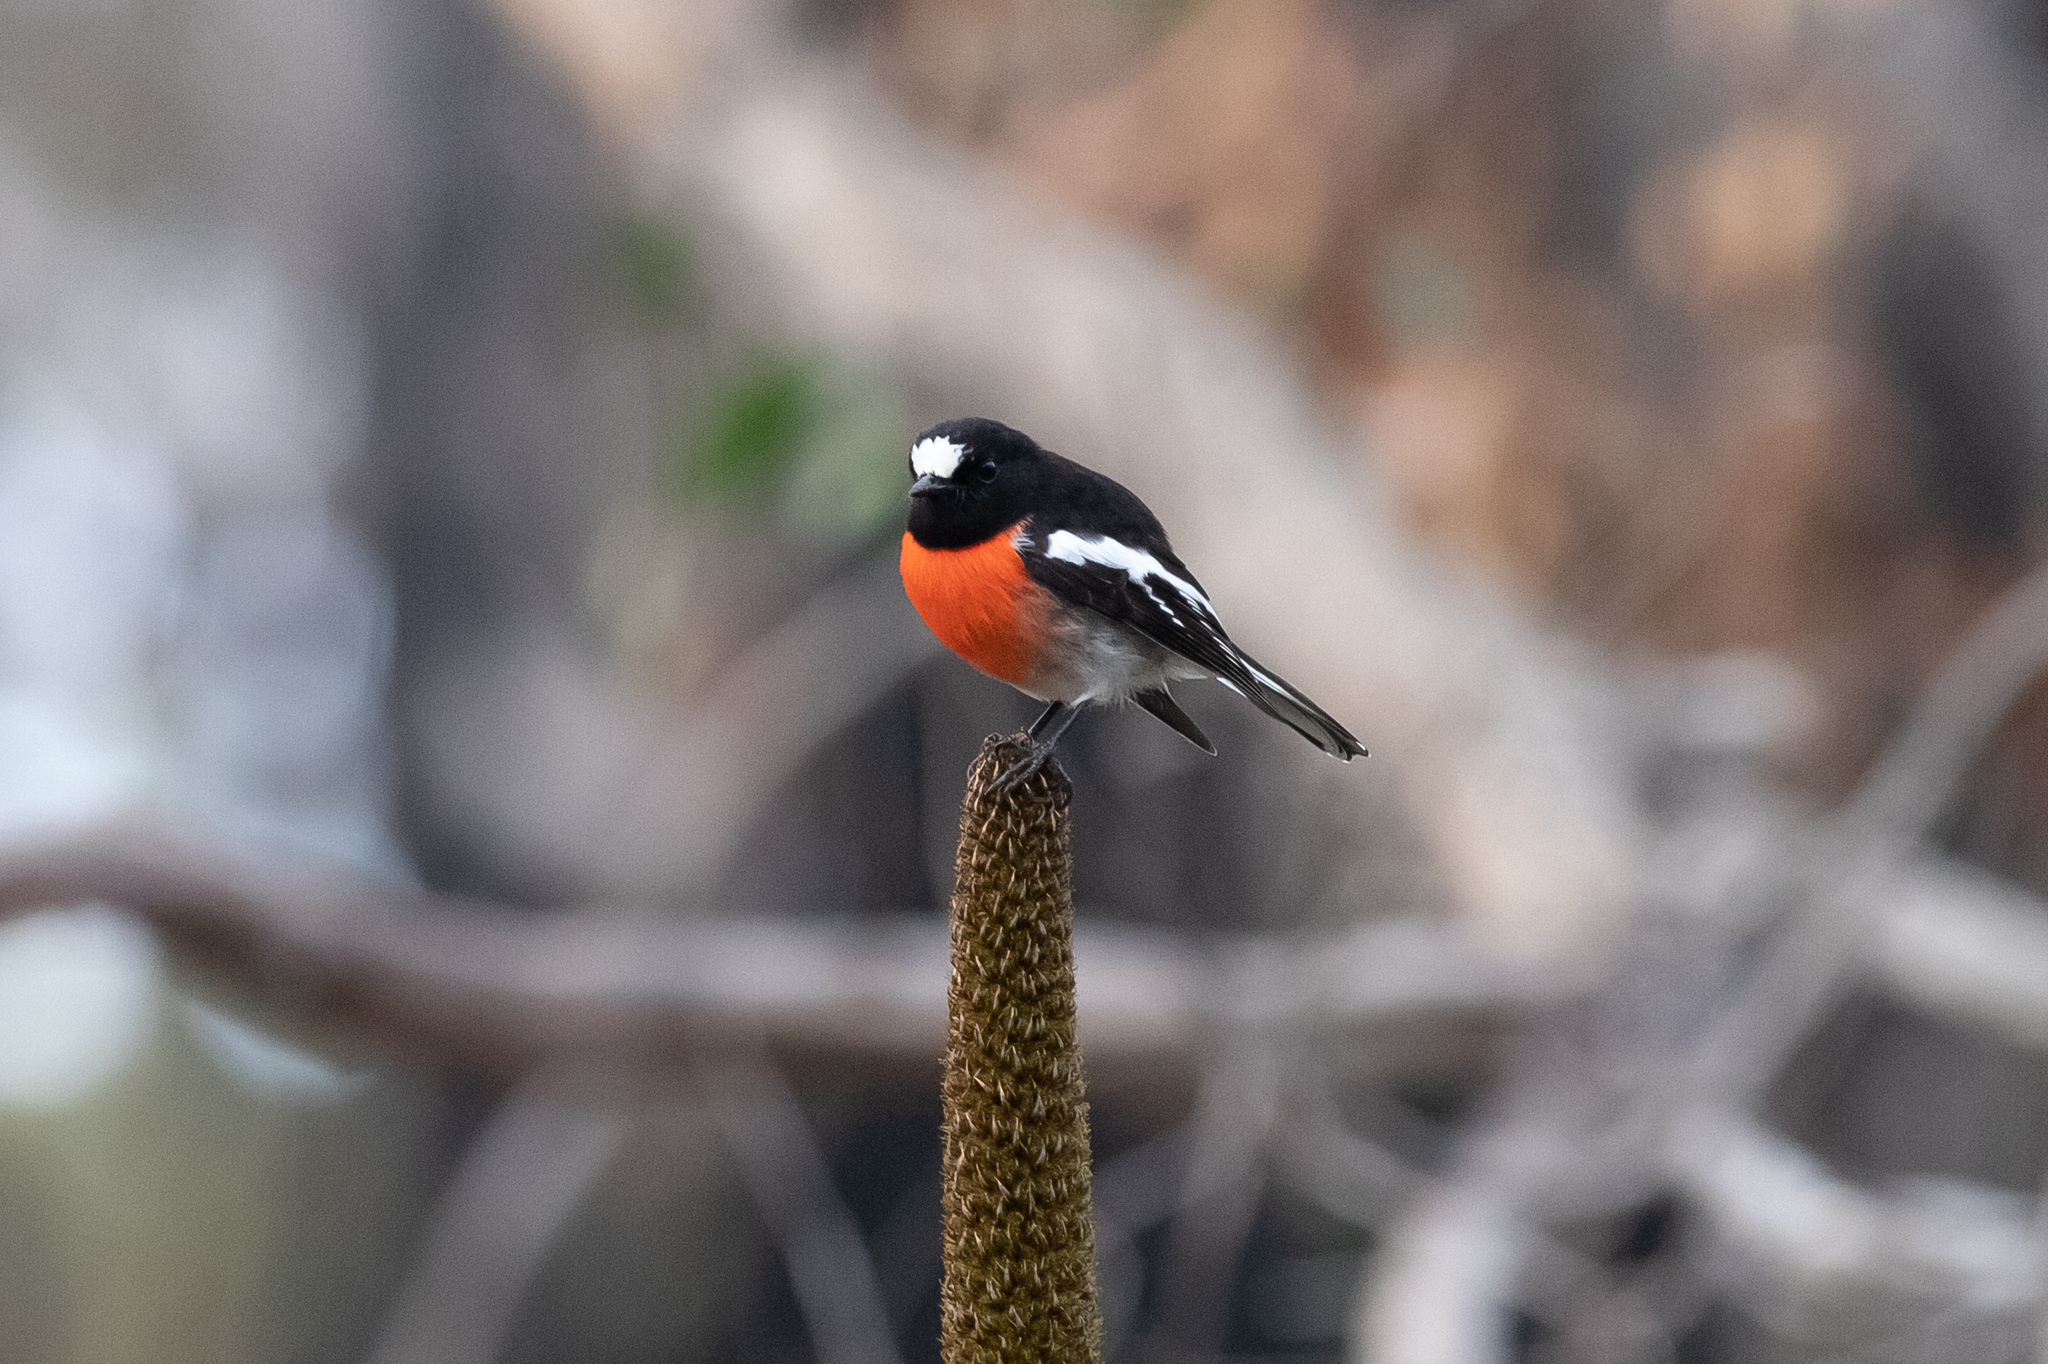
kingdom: Animalia
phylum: Chordata
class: Aves
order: Passeriformes
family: Petroicidae
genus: Petroica
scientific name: Petroica boodang
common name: Scarlet robin
